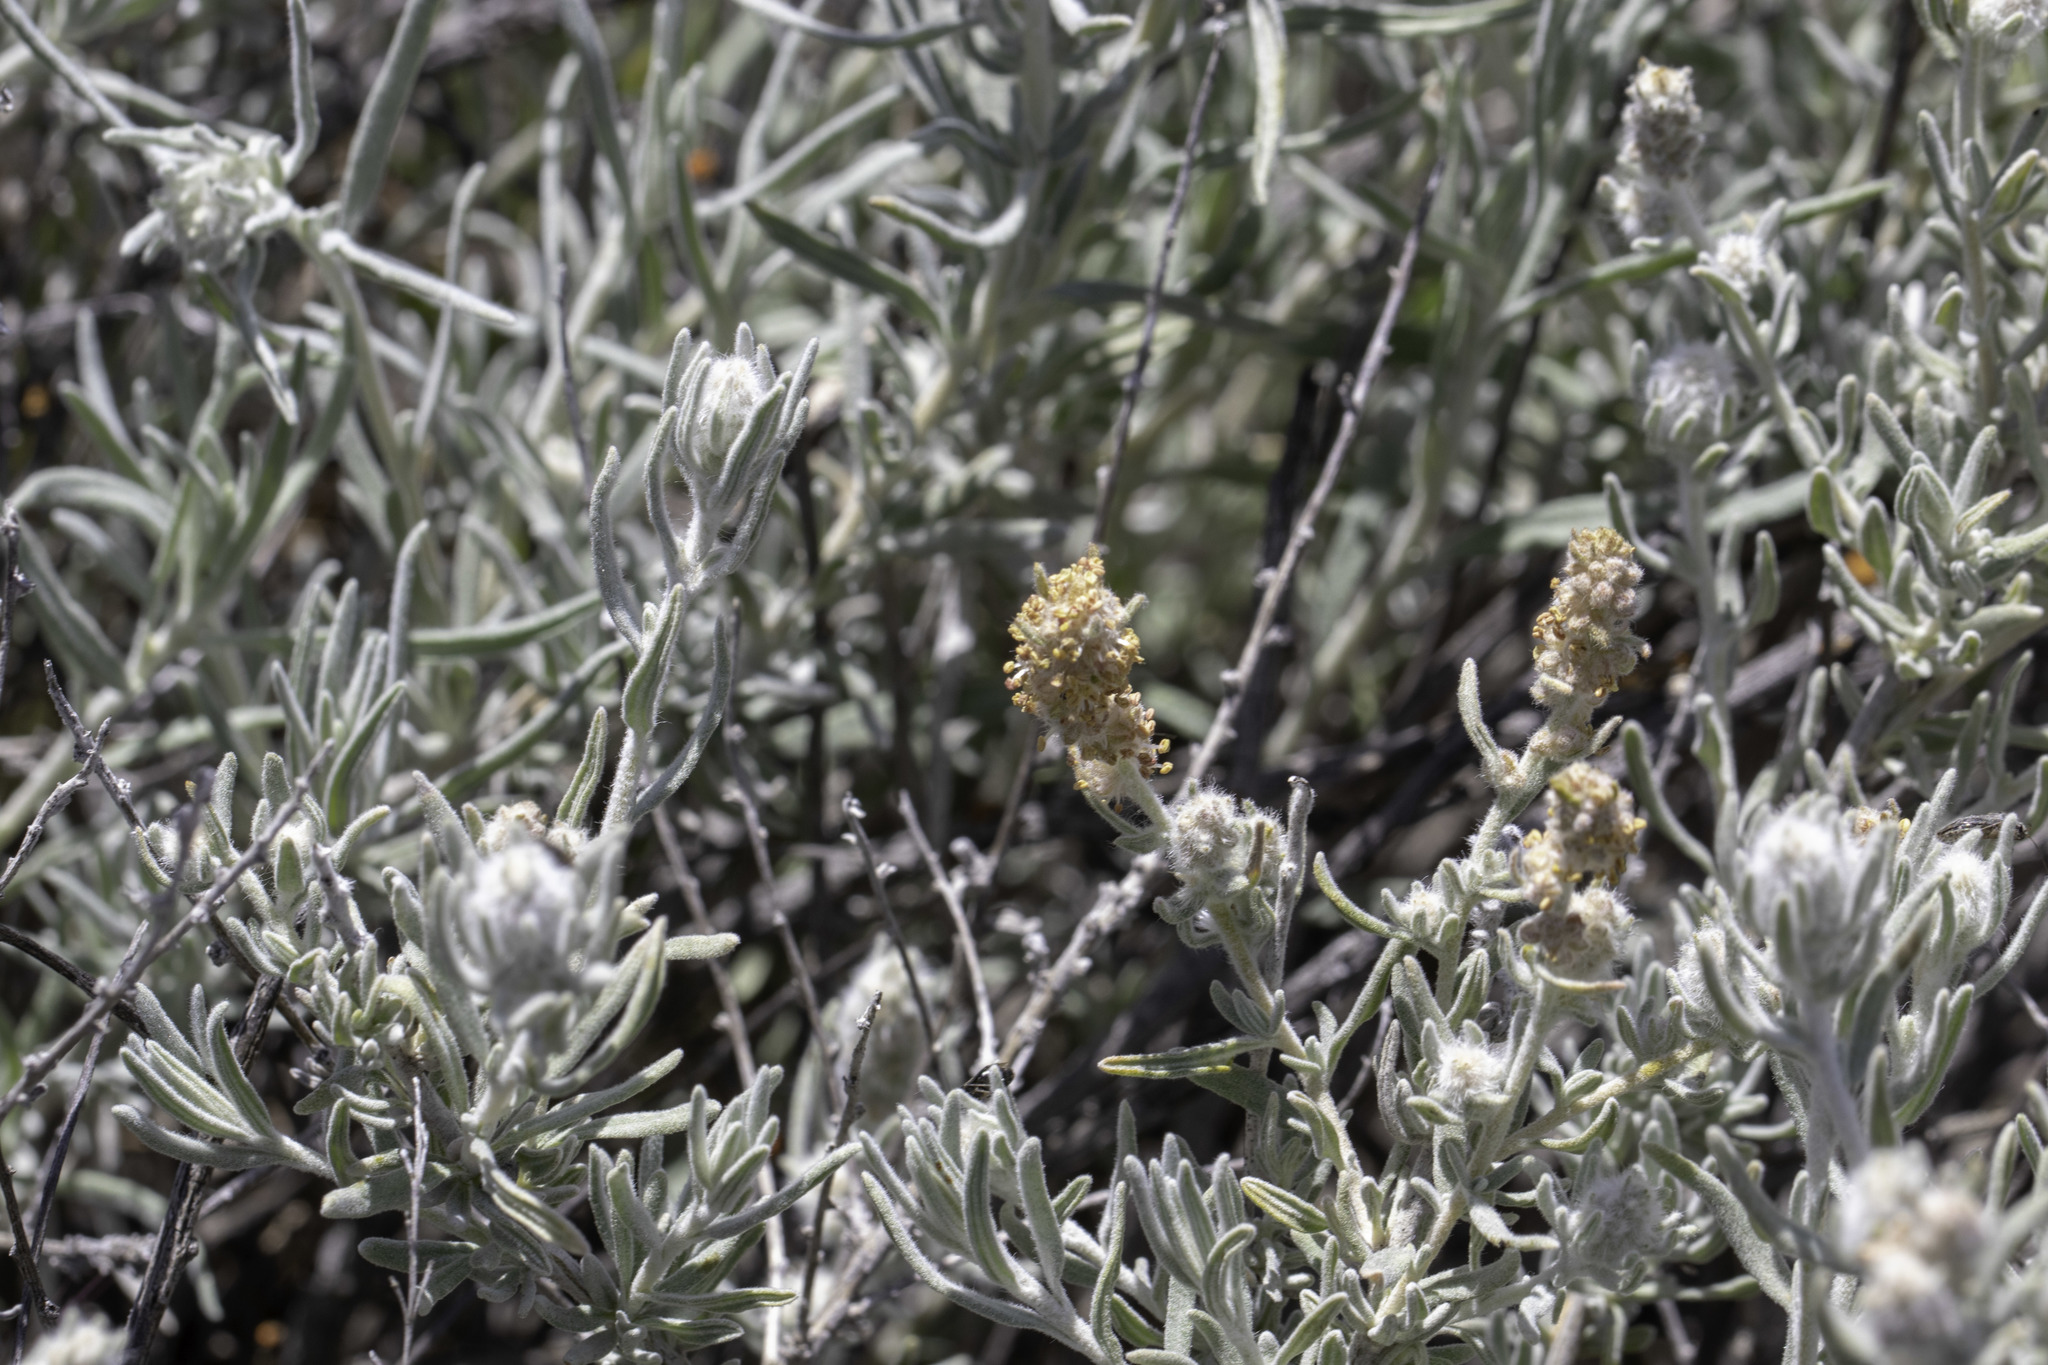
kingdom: Plantae
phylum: Tracheophyta
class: Magnoliopsida
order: Caryophyllales
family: Amaranthaceae
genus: Krascheninnikovia
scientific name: Krascheninnikovia lanata
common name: Winterfat
